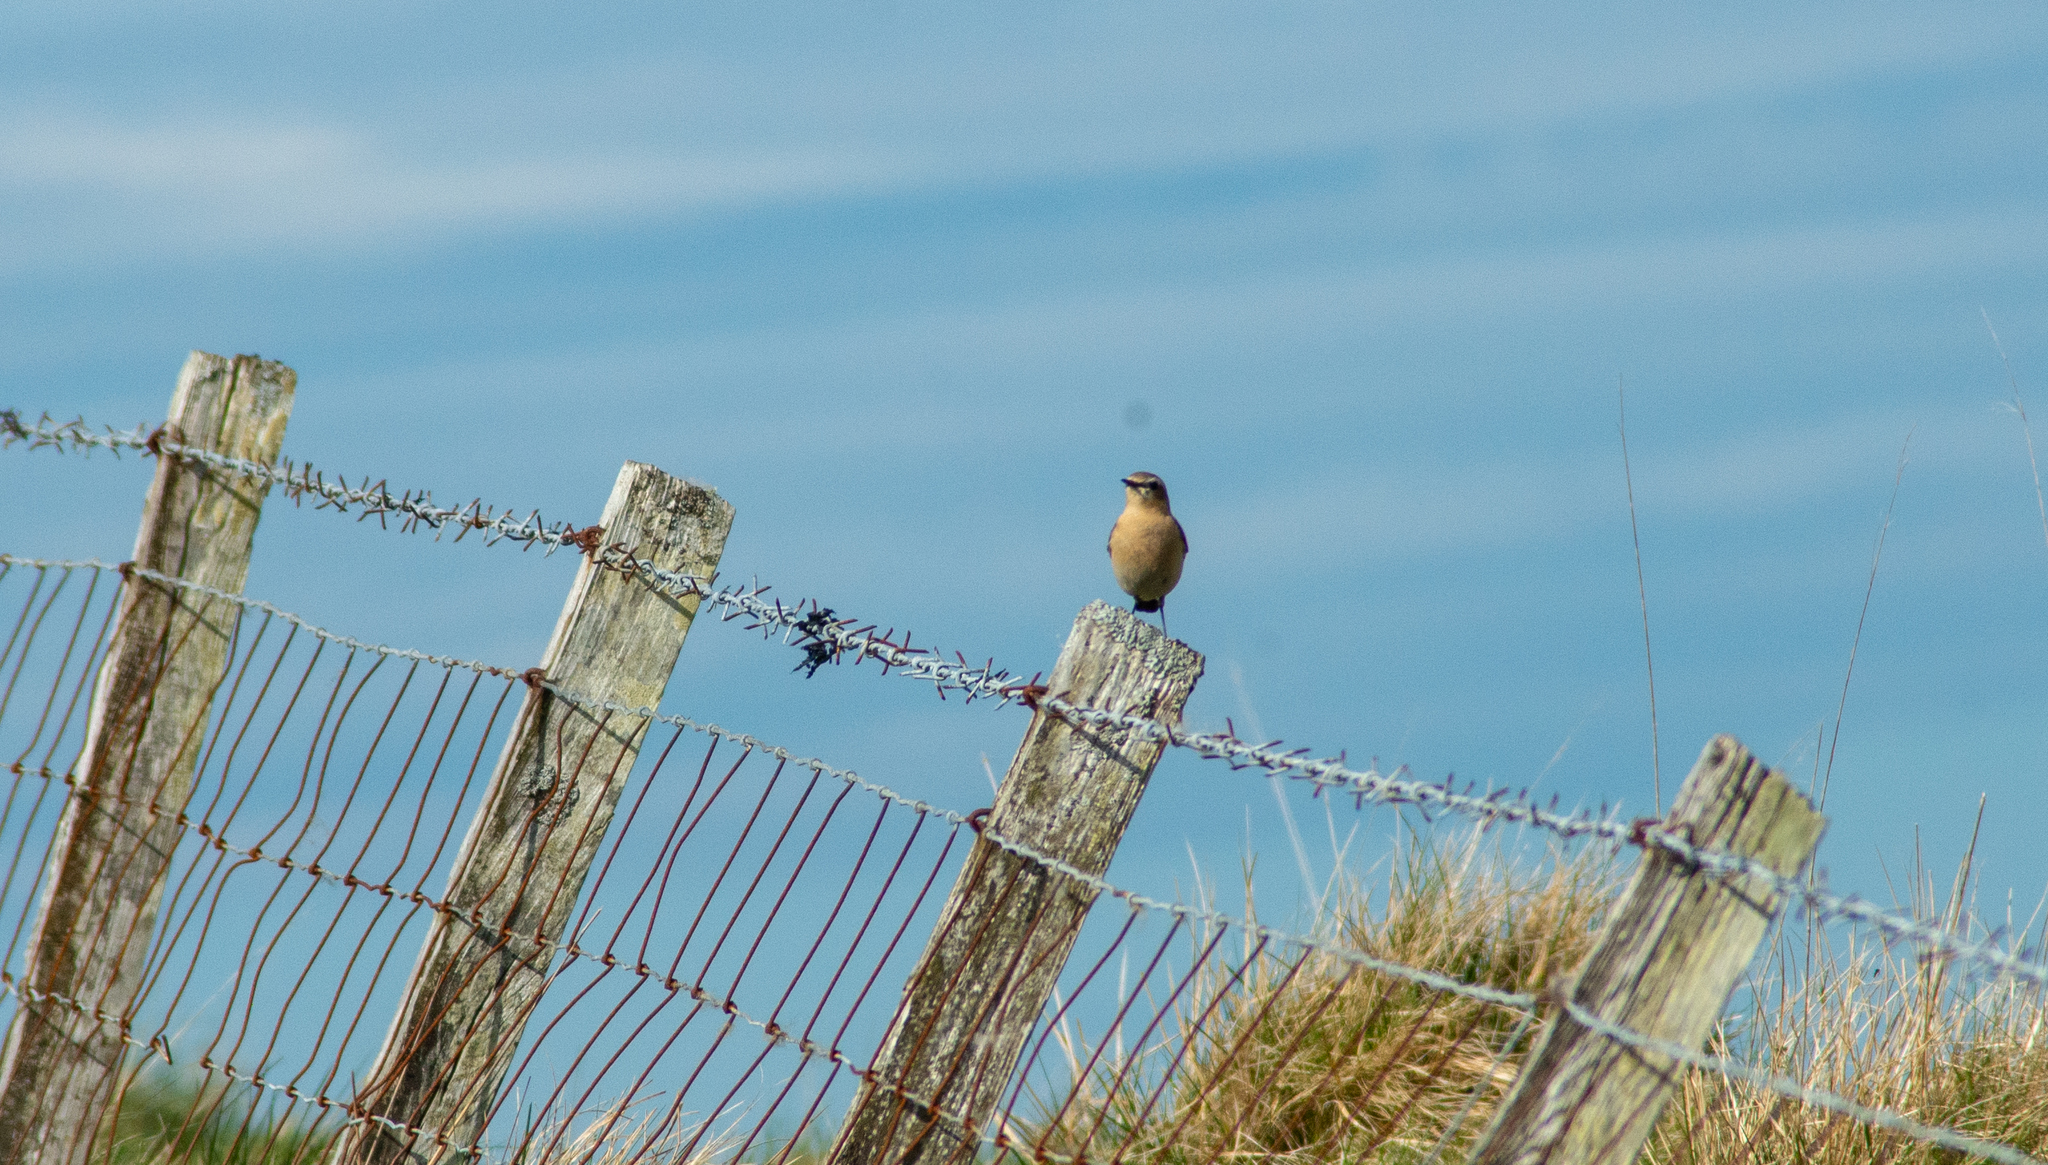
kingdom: Animalia
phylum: Chordata
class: Aves
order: Passeriformes
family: Muscicapidae
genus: Oenanthe
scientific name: Oenanthe oenanthe
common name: Northern wheatear
